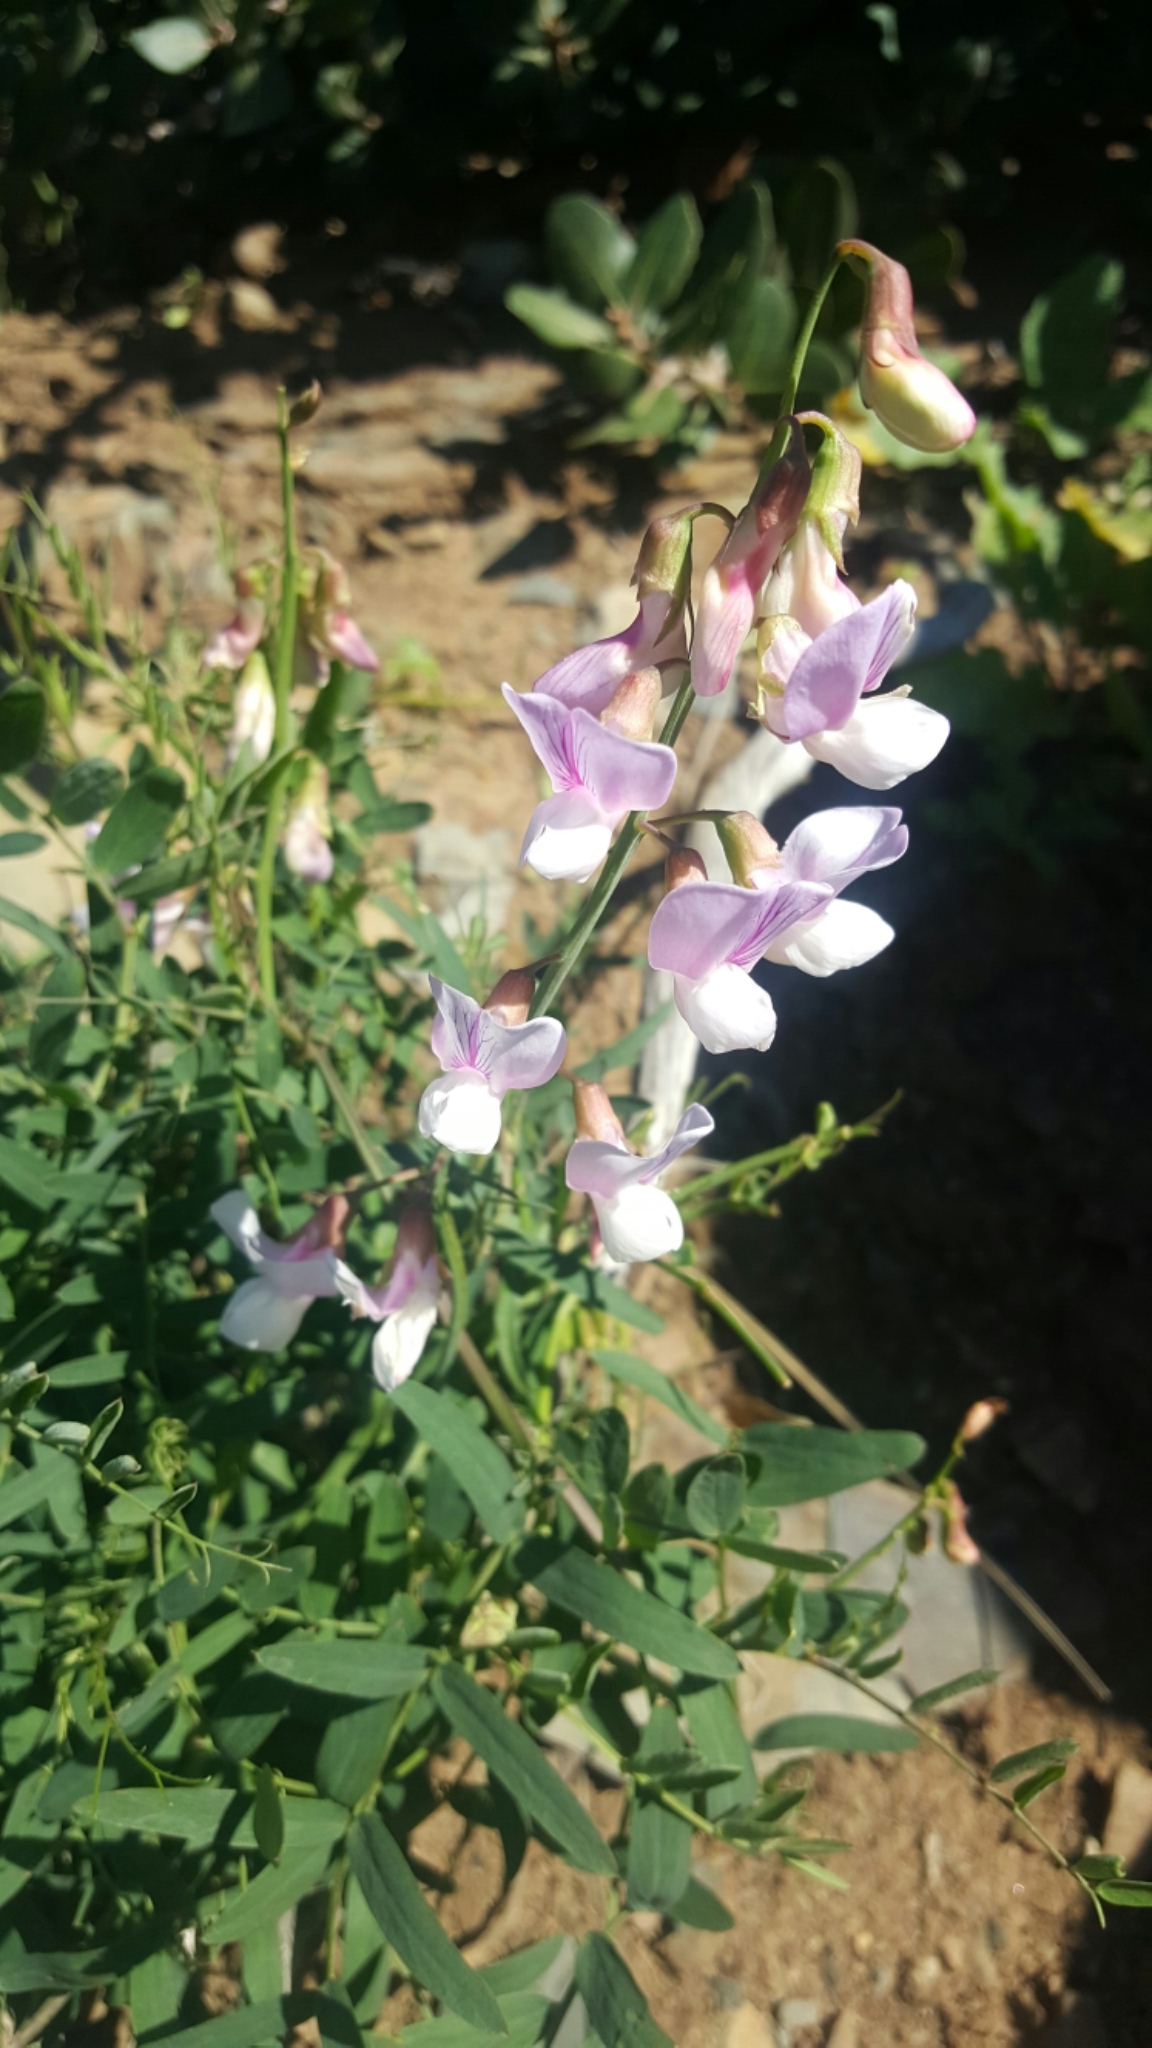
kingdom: Plantae
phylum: Tracheophyta
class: Magnoliopsida
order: Fabales
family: Fabaceae
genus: Lathyrus
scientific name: Lathyrus vestitus
